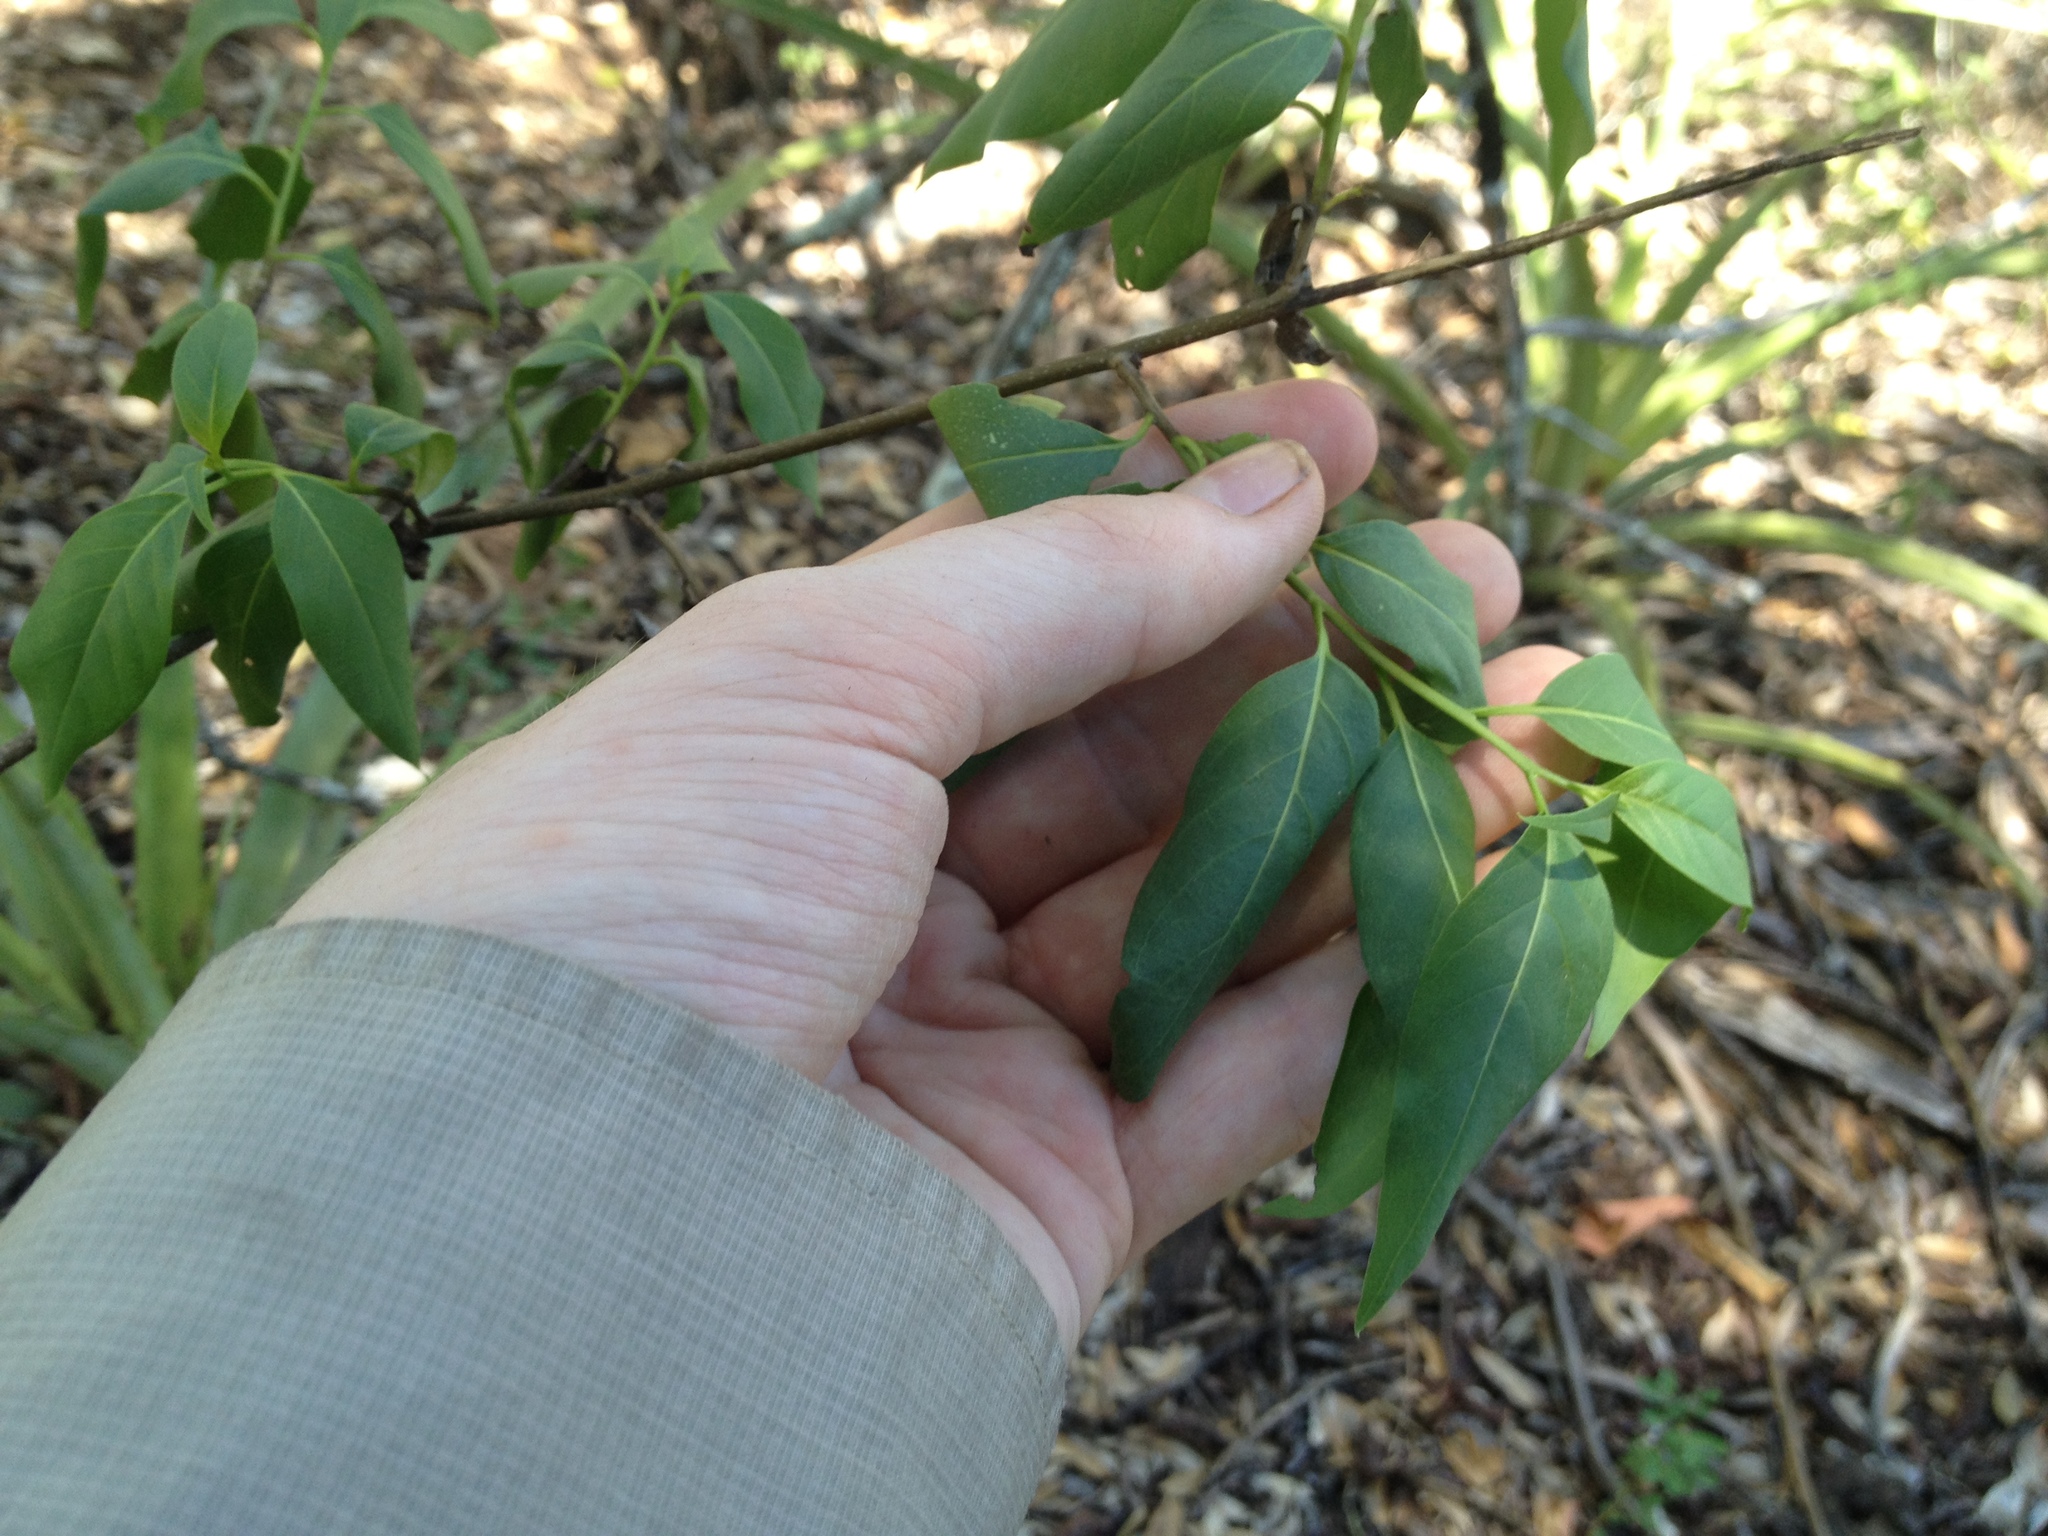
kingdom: Plantae
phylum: Tracheophyta
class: Magnoliopsida
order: Boraginales
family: Heliotropiaceae
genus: Myriopus
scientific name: Myriopus rubicundus
